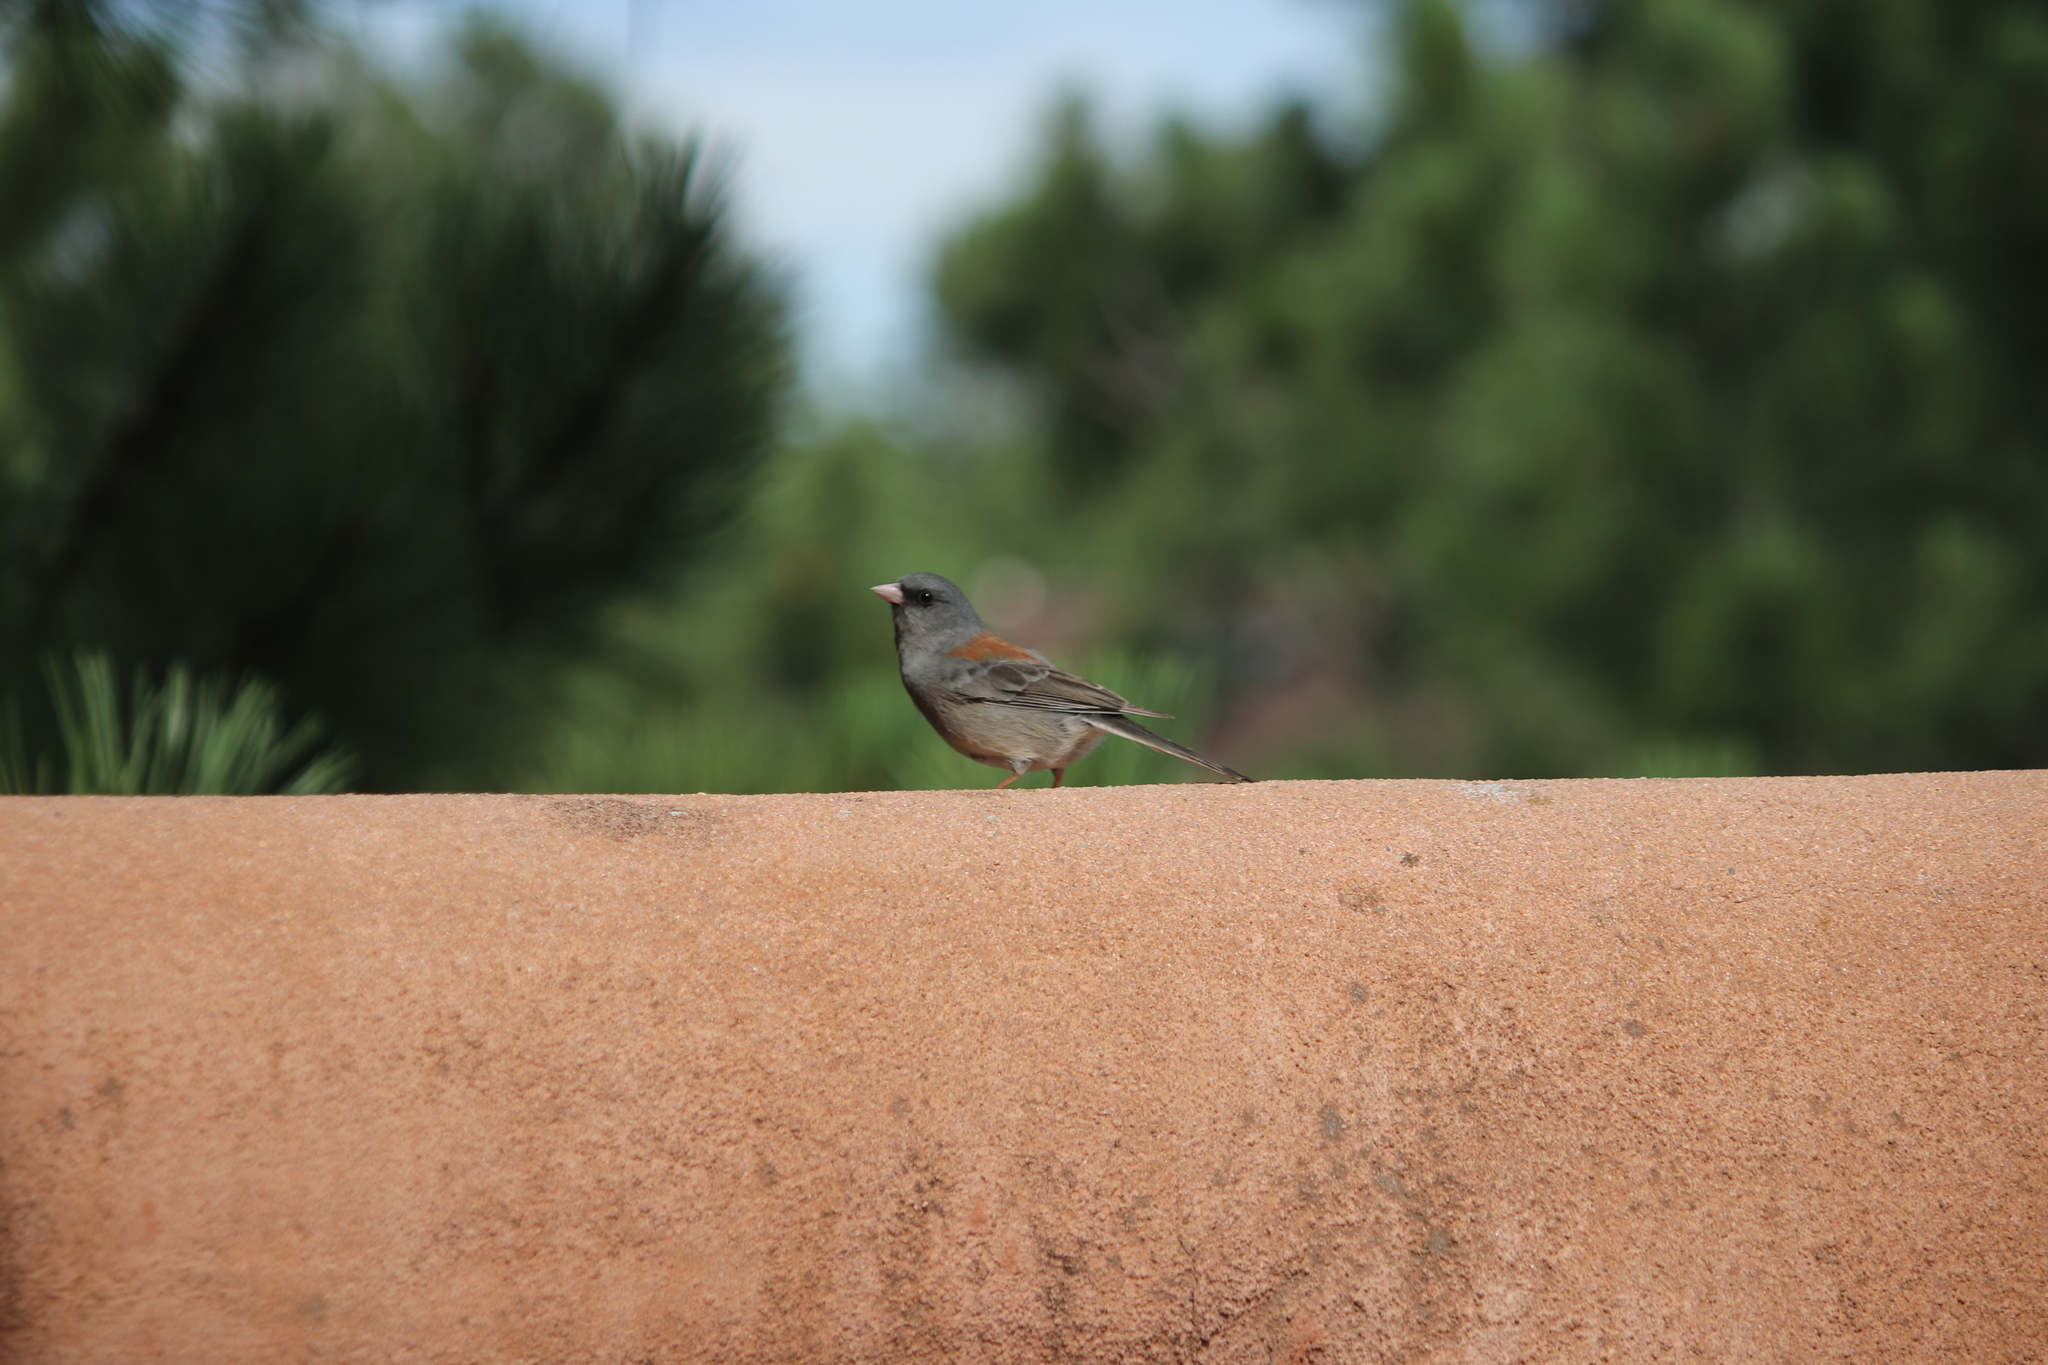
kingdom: Animalia
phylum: Chordata
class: Aves
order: Passeriformes
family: Passerellidae
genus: Junco
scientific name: Junco hyemalis
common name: Dark-eyed junco
